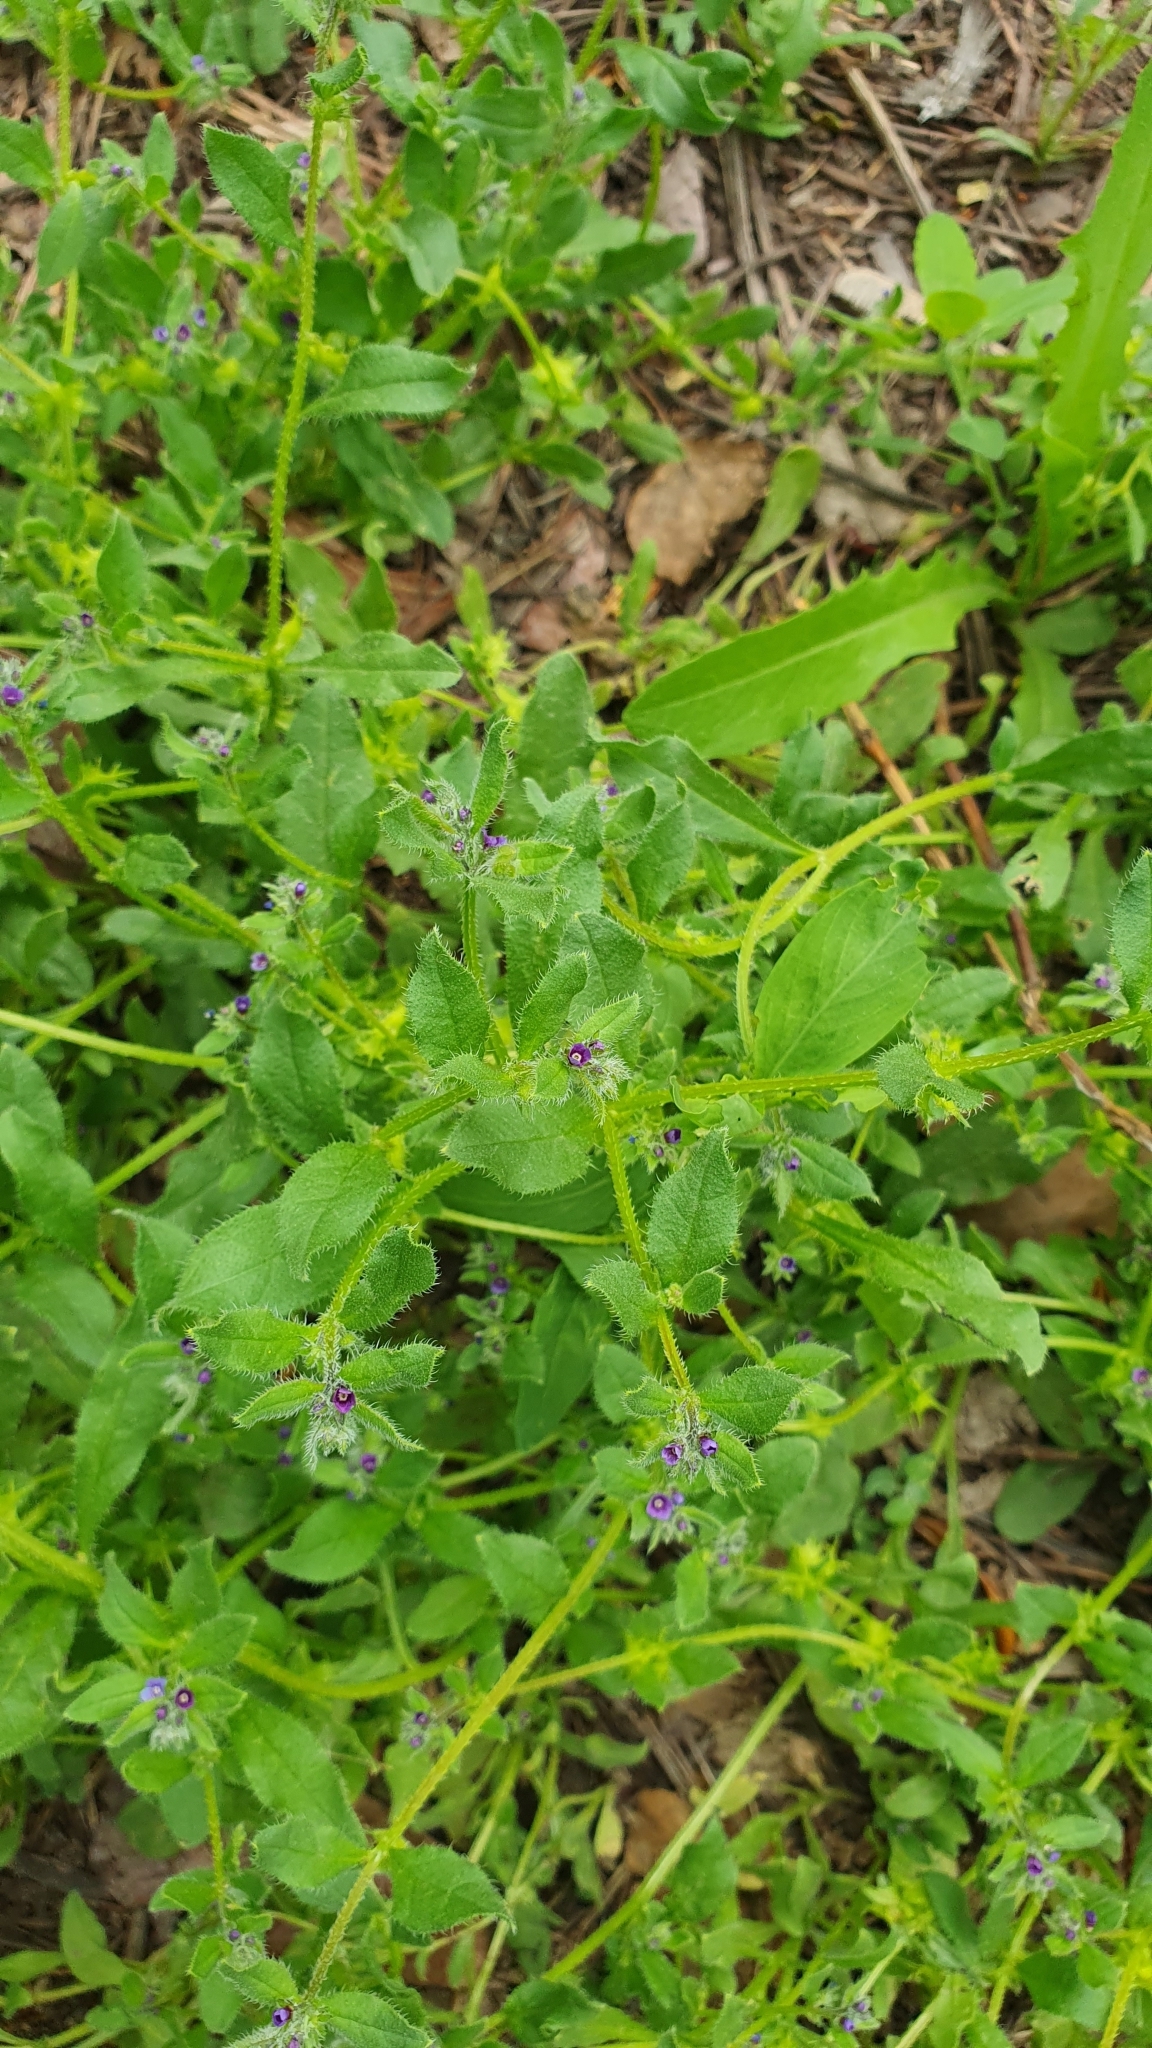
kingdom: Plantae
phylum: Tracheophyta
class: Magnoliopsida
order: Boraginales
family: Boraginaceae
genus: Asperugo
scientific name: Asperugo procumbens
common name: Madwort
